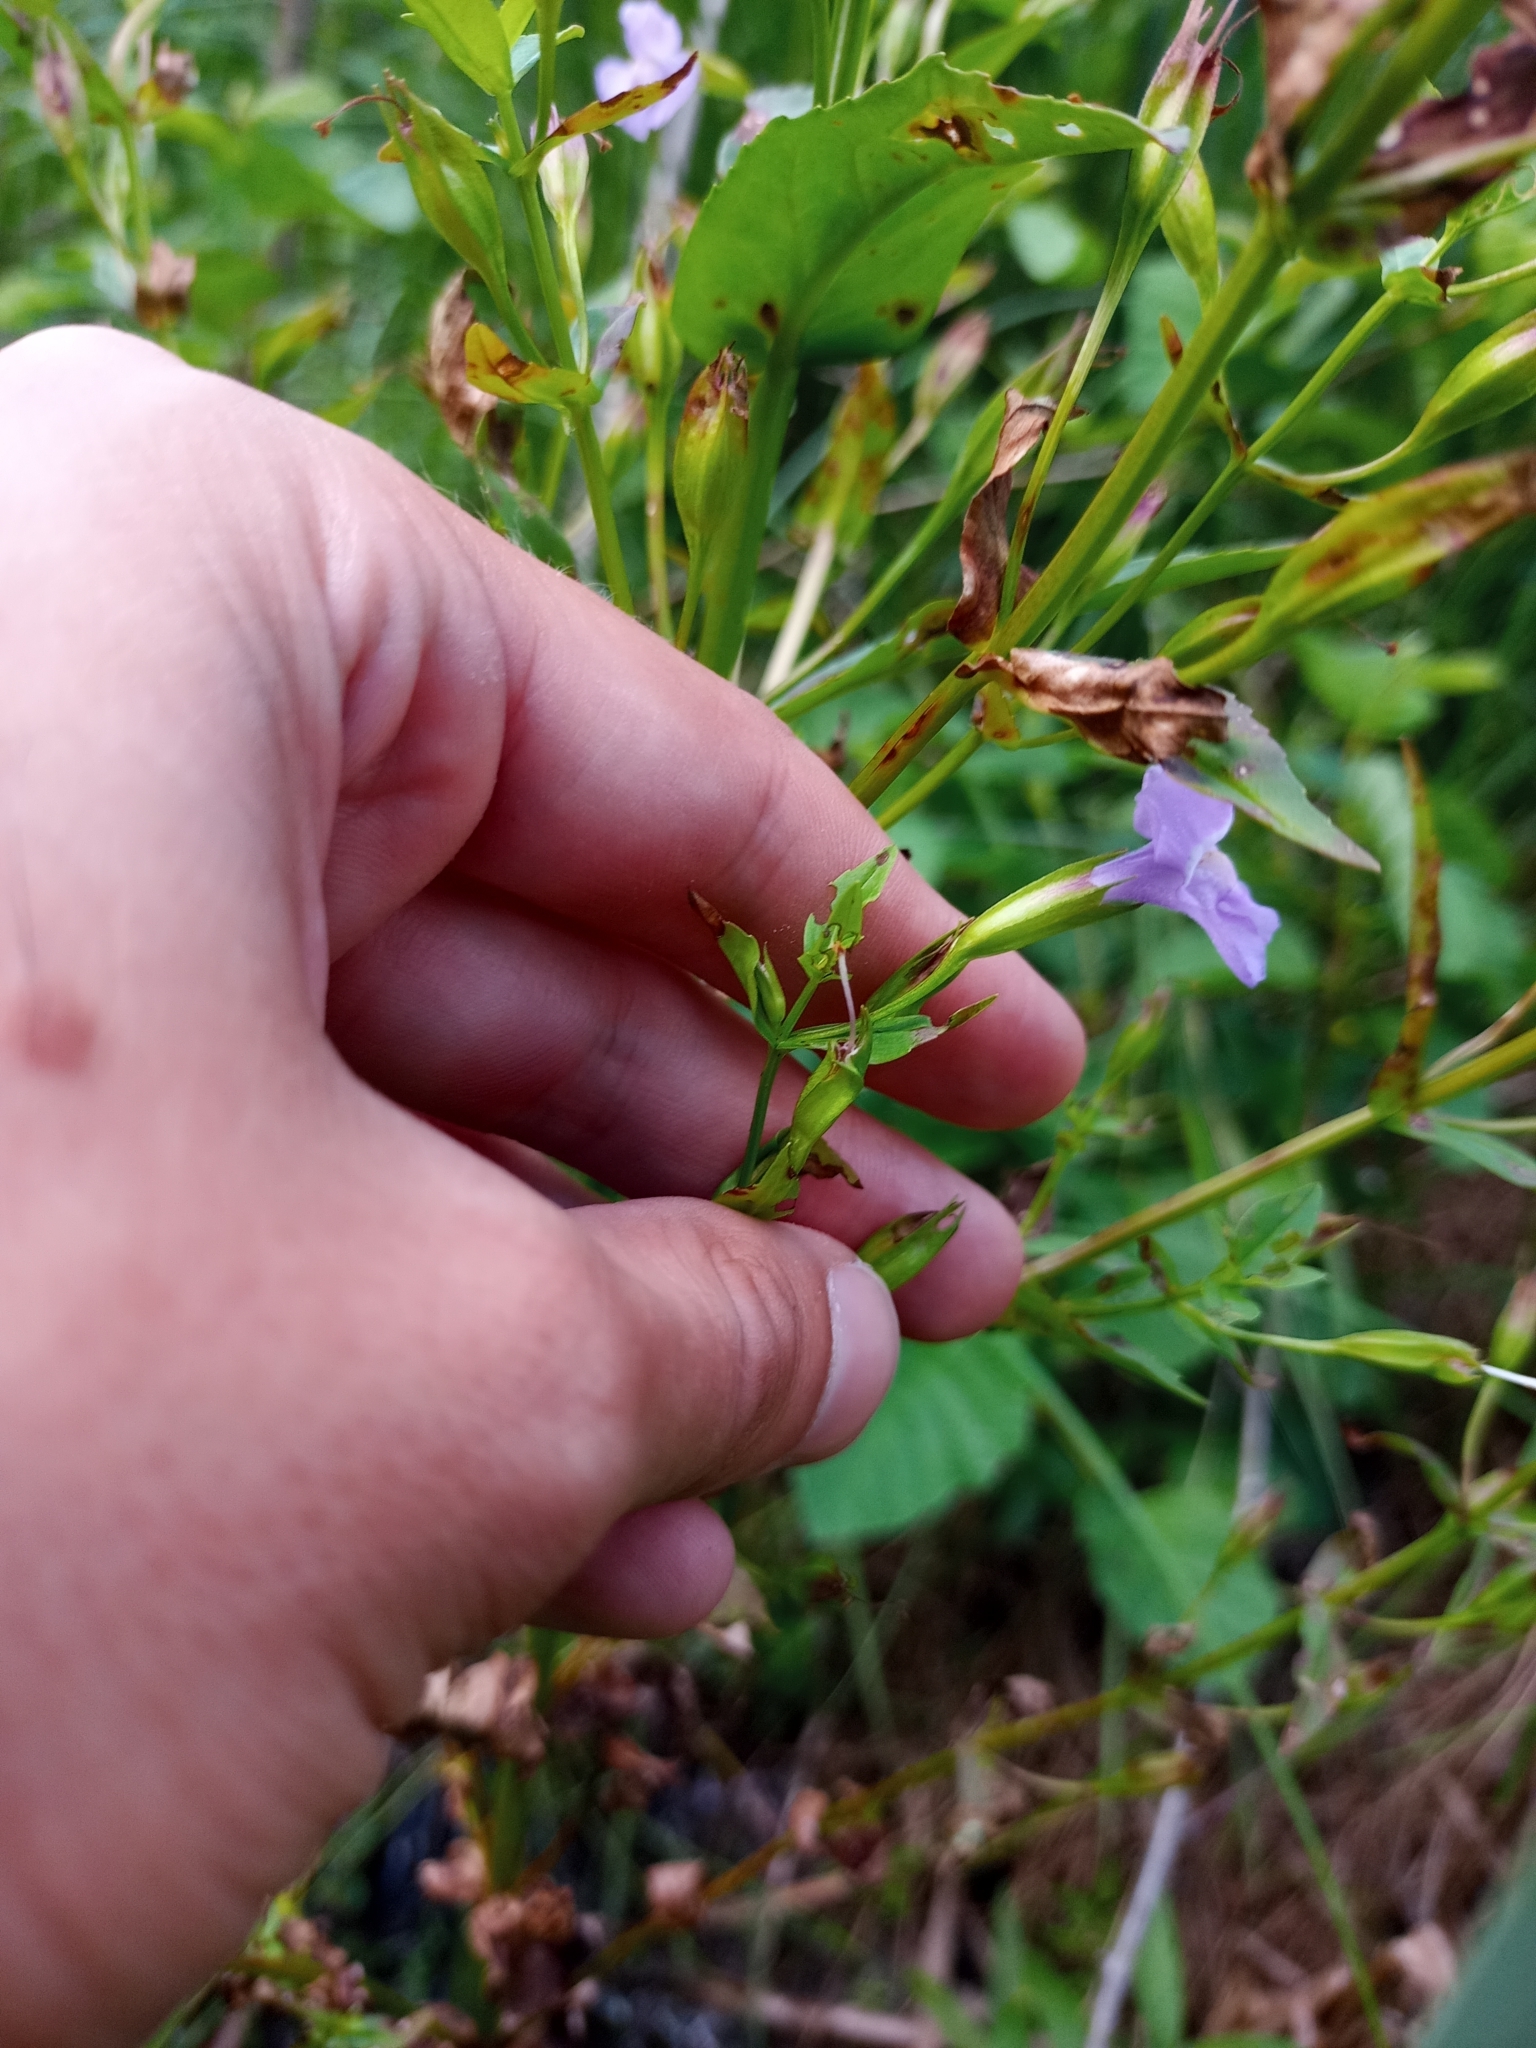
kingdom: Plantae
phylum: Tracheophyta
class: Magnoliopsida
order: Lamiales
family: Phrymaceae
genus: Mimulus
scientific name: Mimulus ringens
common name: Allegheny monkeyflower
